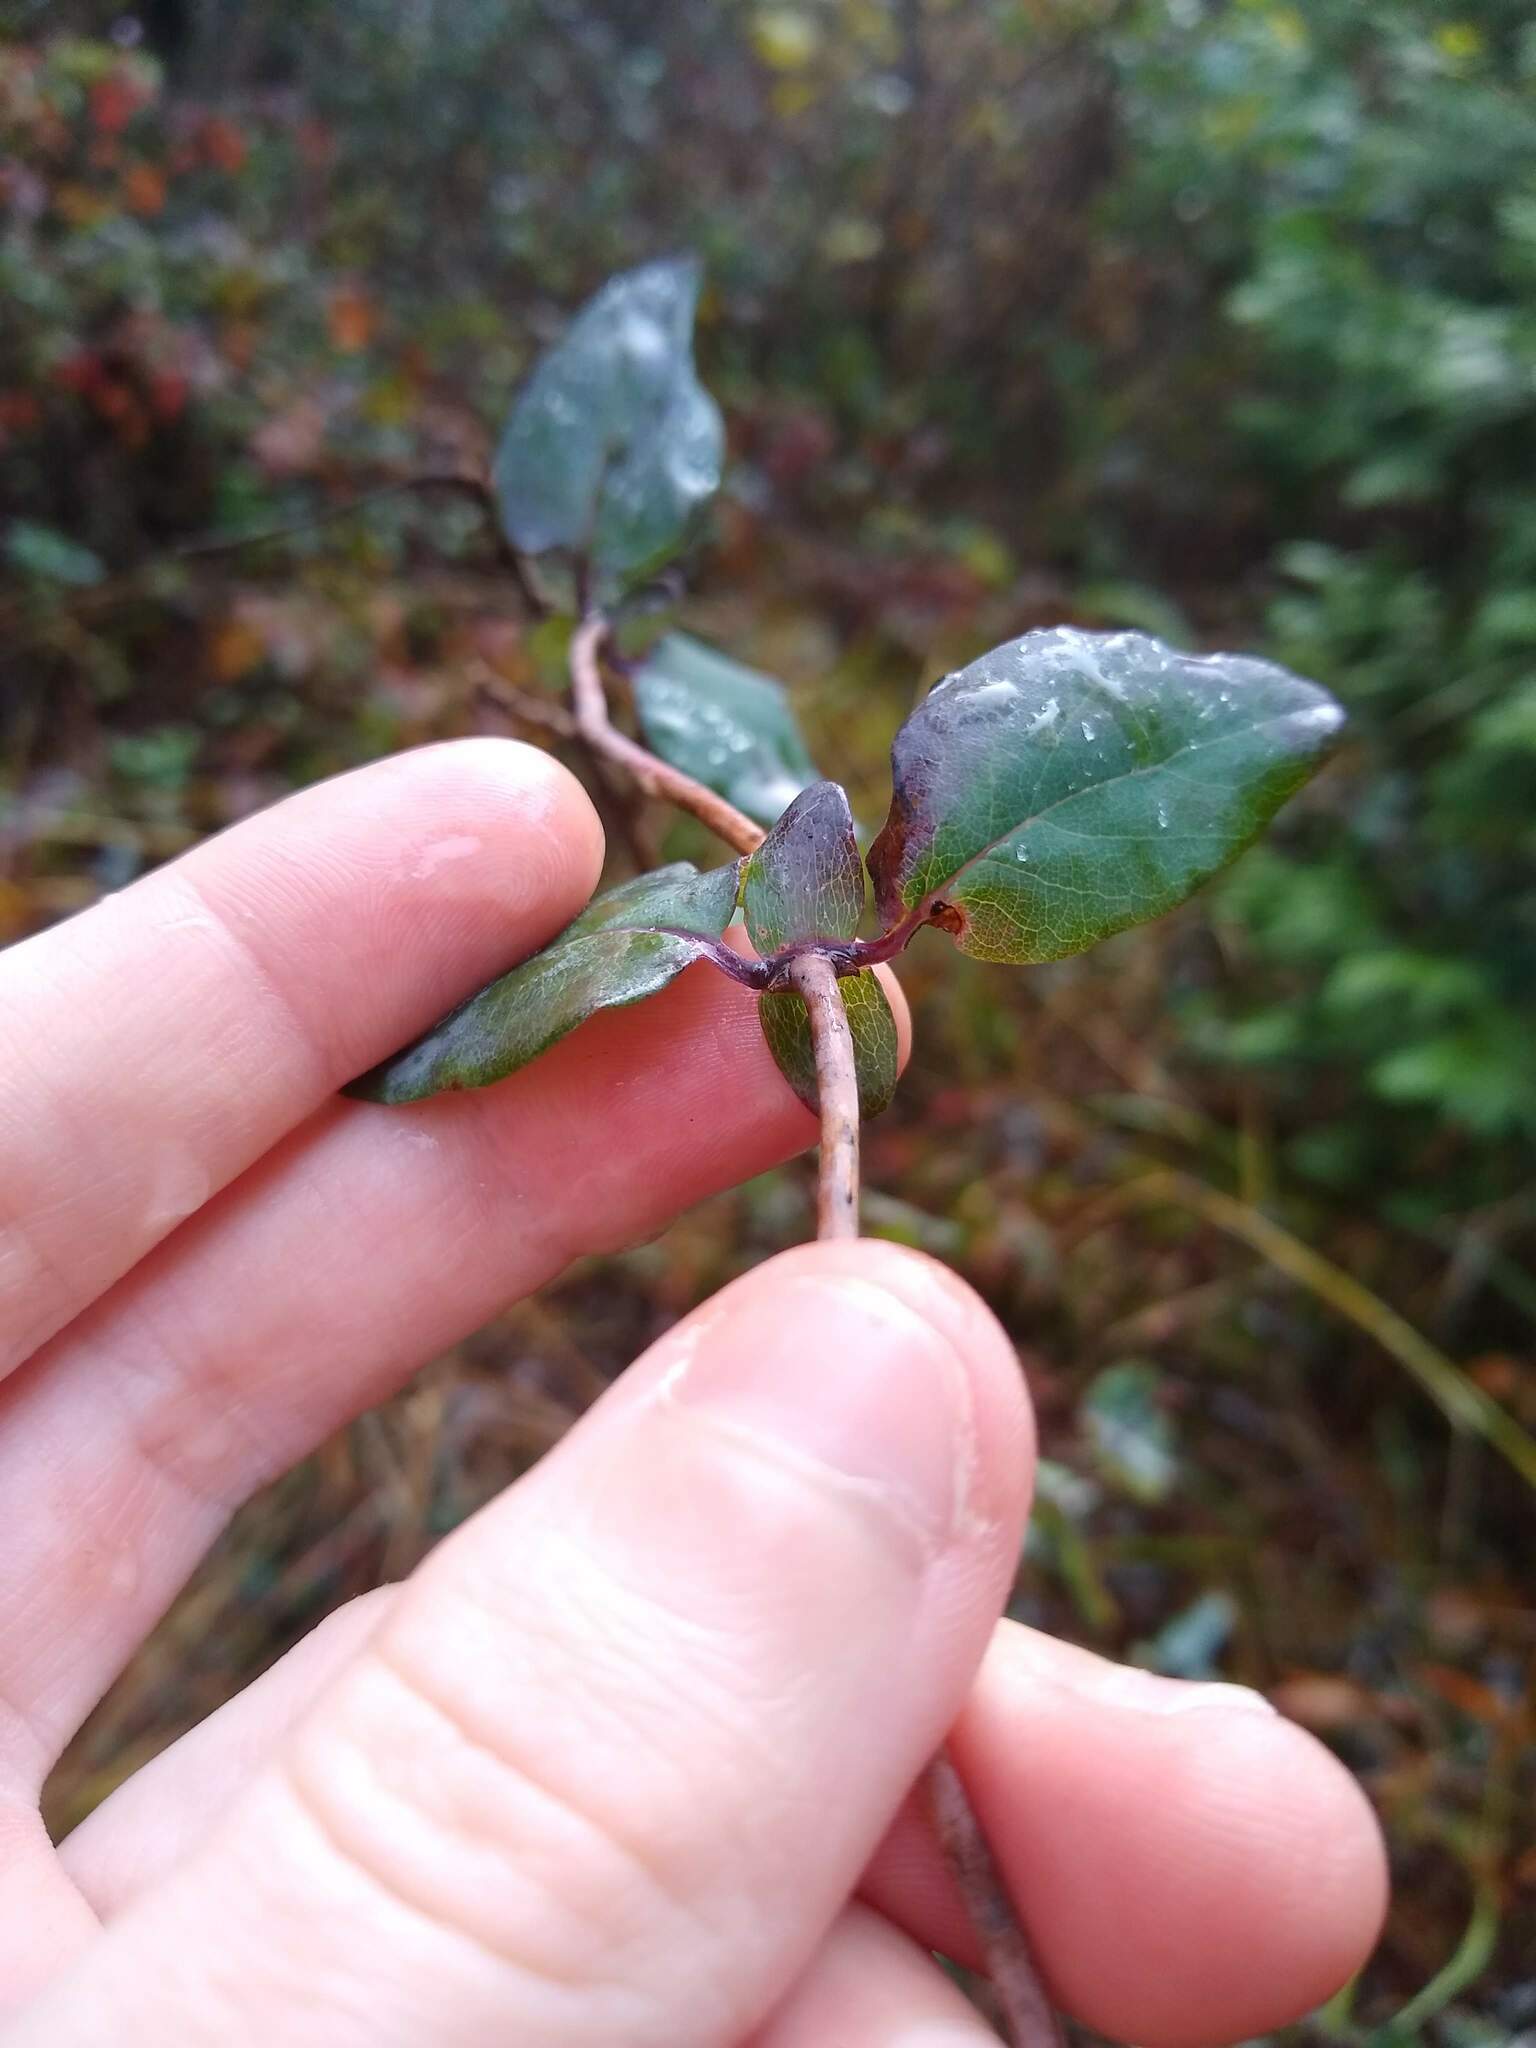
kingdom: Plantae
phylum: Tracheophyta
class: Magnoliopsida
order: Dipsacales
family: Caprifoliaceae
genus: Lonicera
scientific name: Lonicera hispidula
